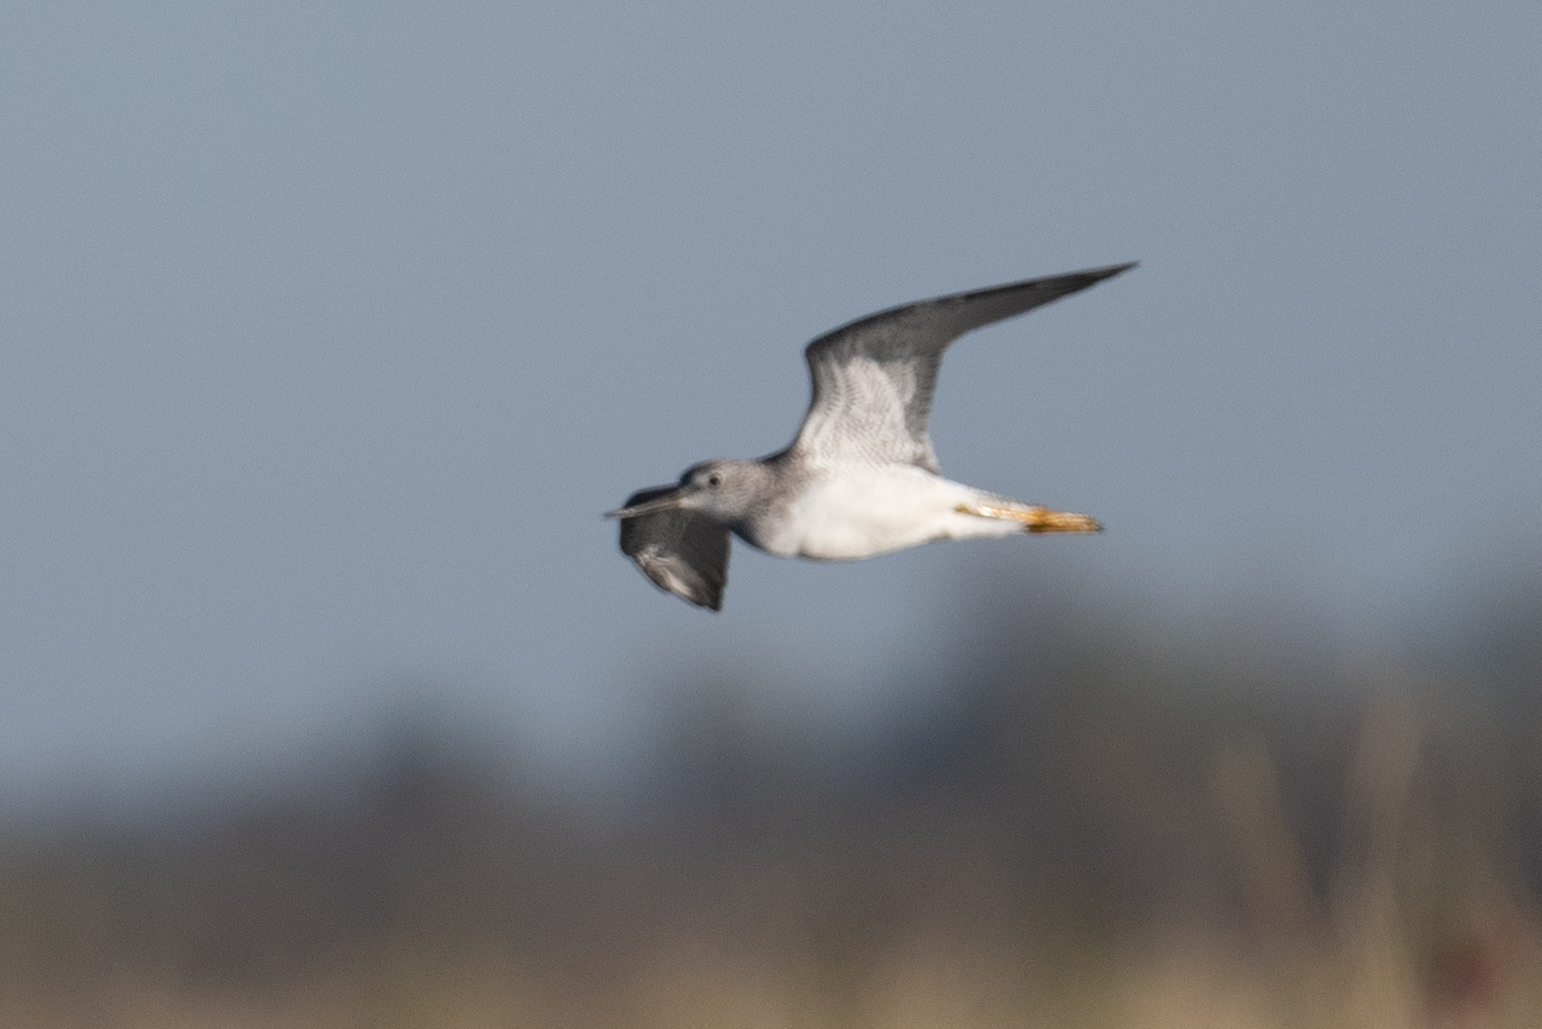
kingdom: Animalia
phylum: Chordata
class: Aves
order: Charadriiformes
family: Scolopacidae
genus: Tringa
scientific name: Tringa melanoleuca
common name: Greater yellowlegs
